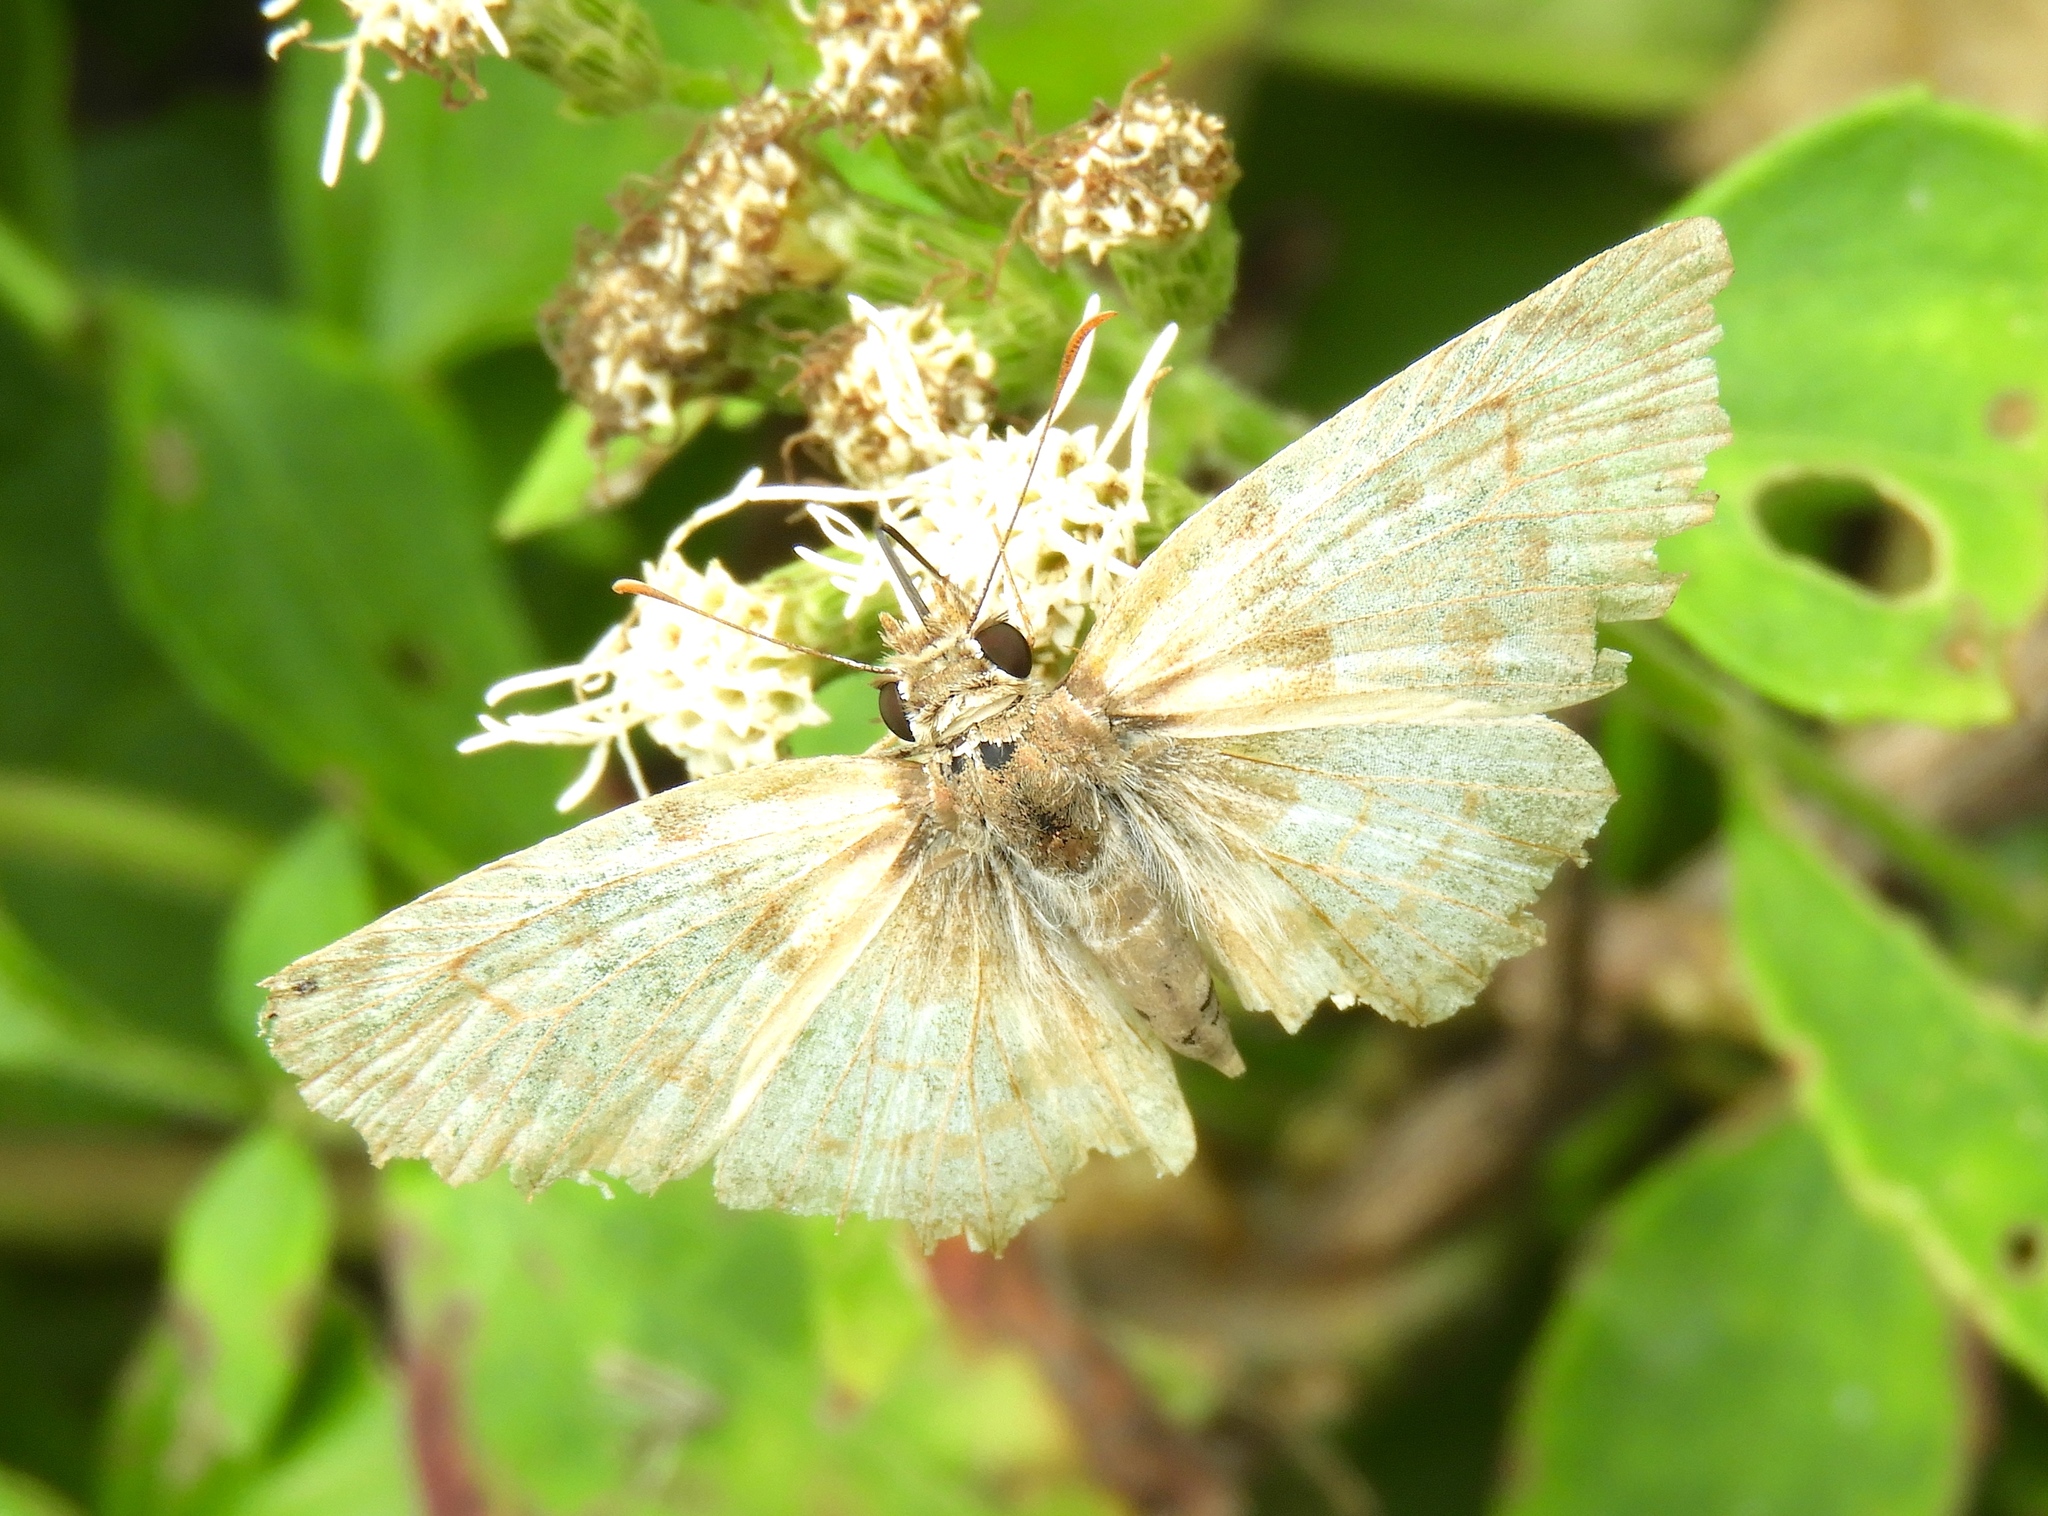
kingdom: Animalia
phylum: Arthropoda
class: Insecta
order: Lepidoptera
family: Hesperiidae
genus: Mylon
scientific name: Mylon pelopidas
